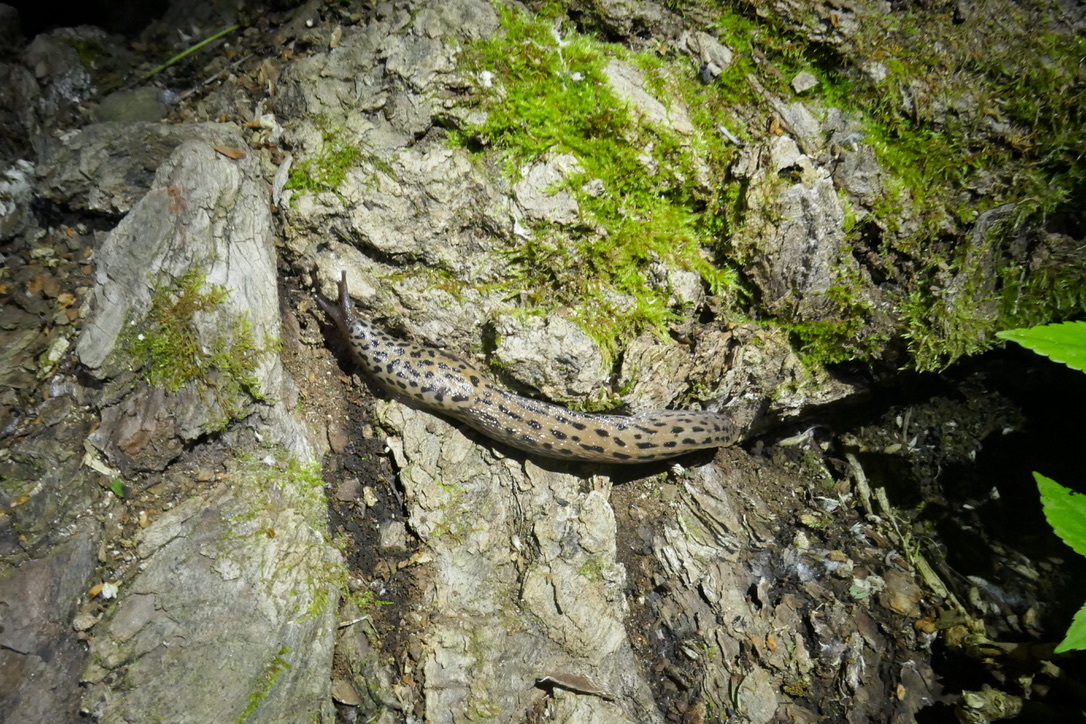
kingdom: Animalia
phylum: Mollusca
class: Gastropoda
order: Stylommatophora
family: Limacidae
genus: Limax
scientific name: Limax maximus
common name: Great grey slug
